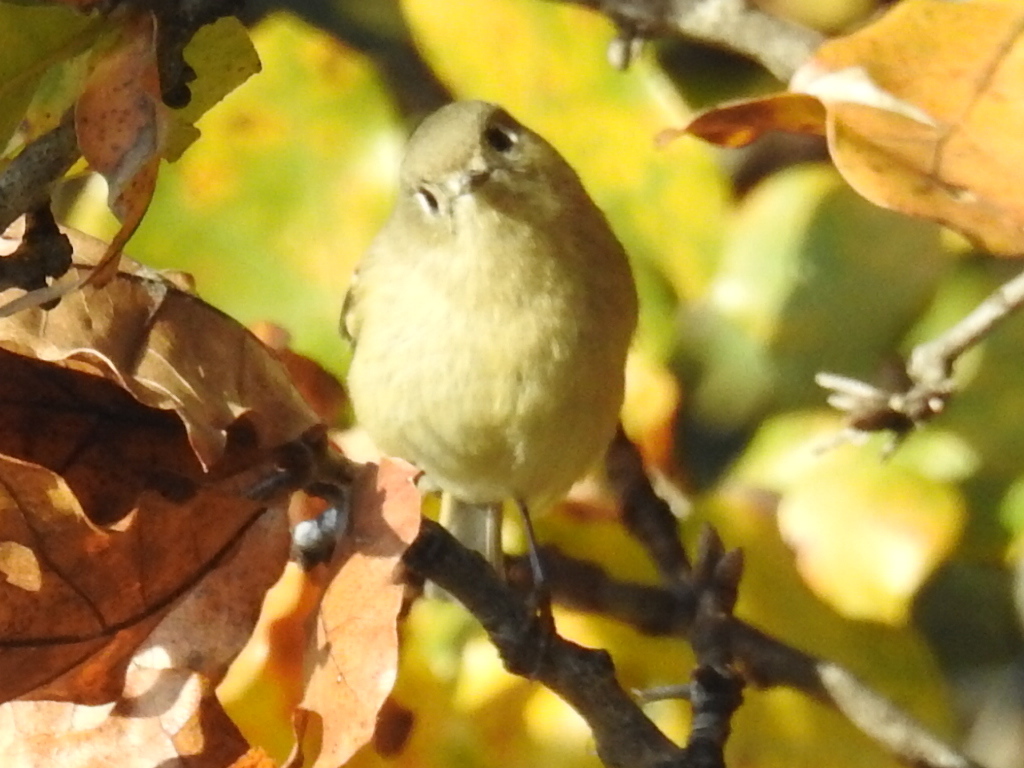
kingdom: Animalia
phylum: Chordata
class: Aves
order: Passeriformes
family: Regulidae
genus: Regulus
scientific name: Regulus calendula
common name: Ruby-crowned kinglet
